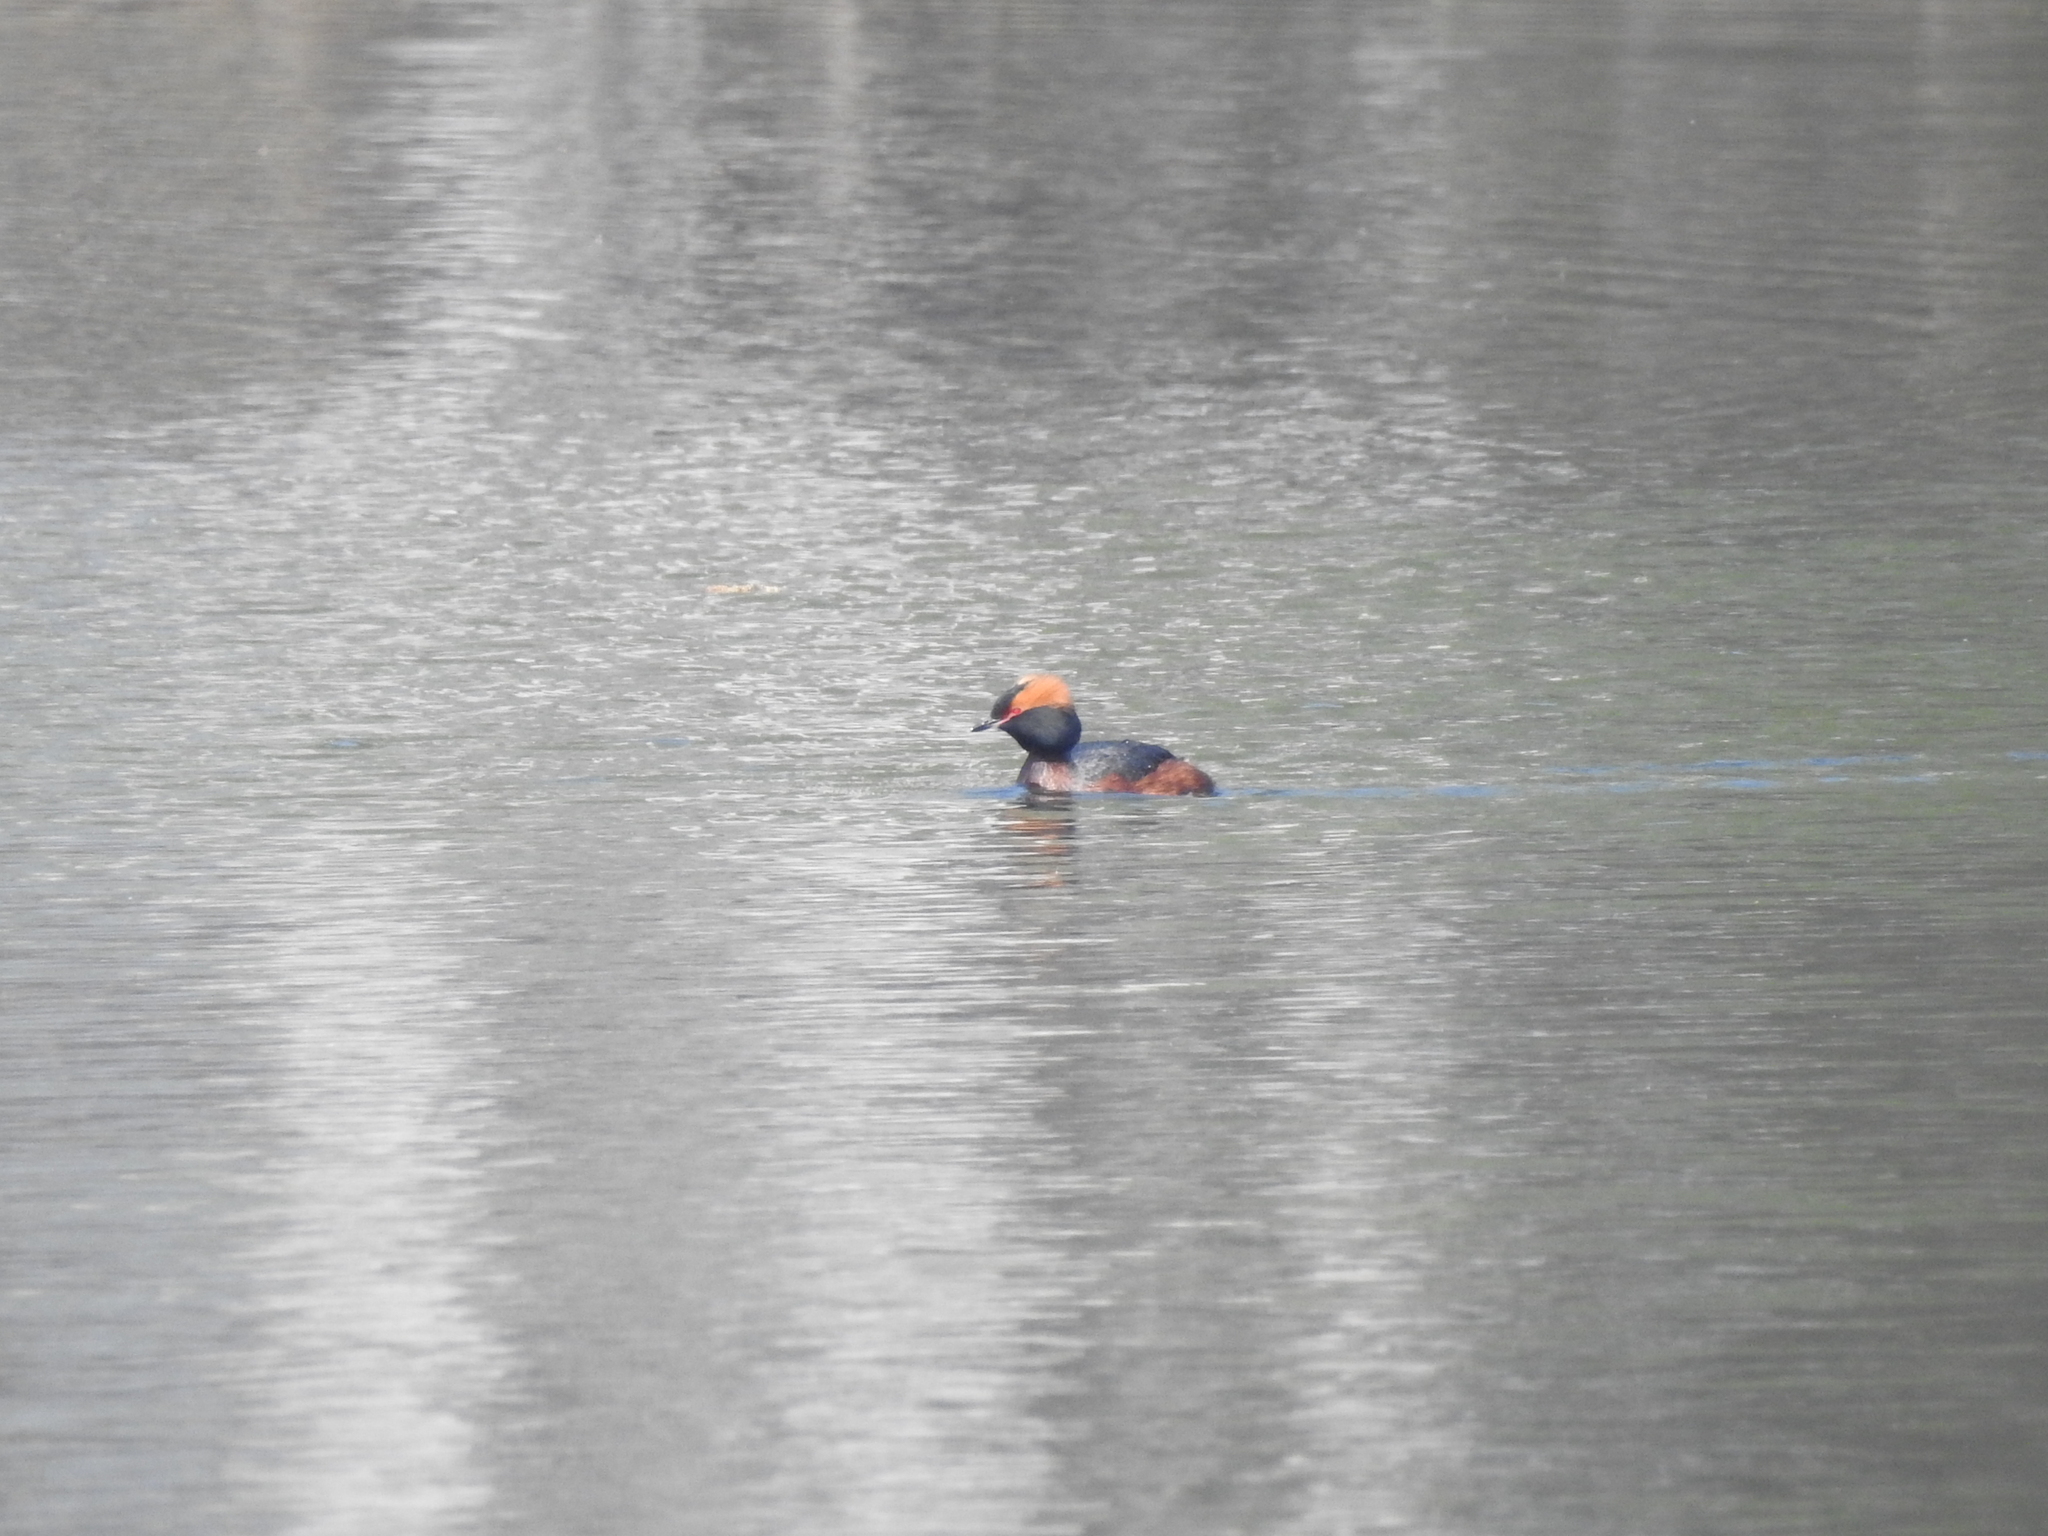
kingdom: Animalia
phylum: Chordata
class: Aves
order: Podicipediformes
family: Podicipedidae
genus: Podiceps
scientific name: Podiceps auritus
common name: Horned grebe
